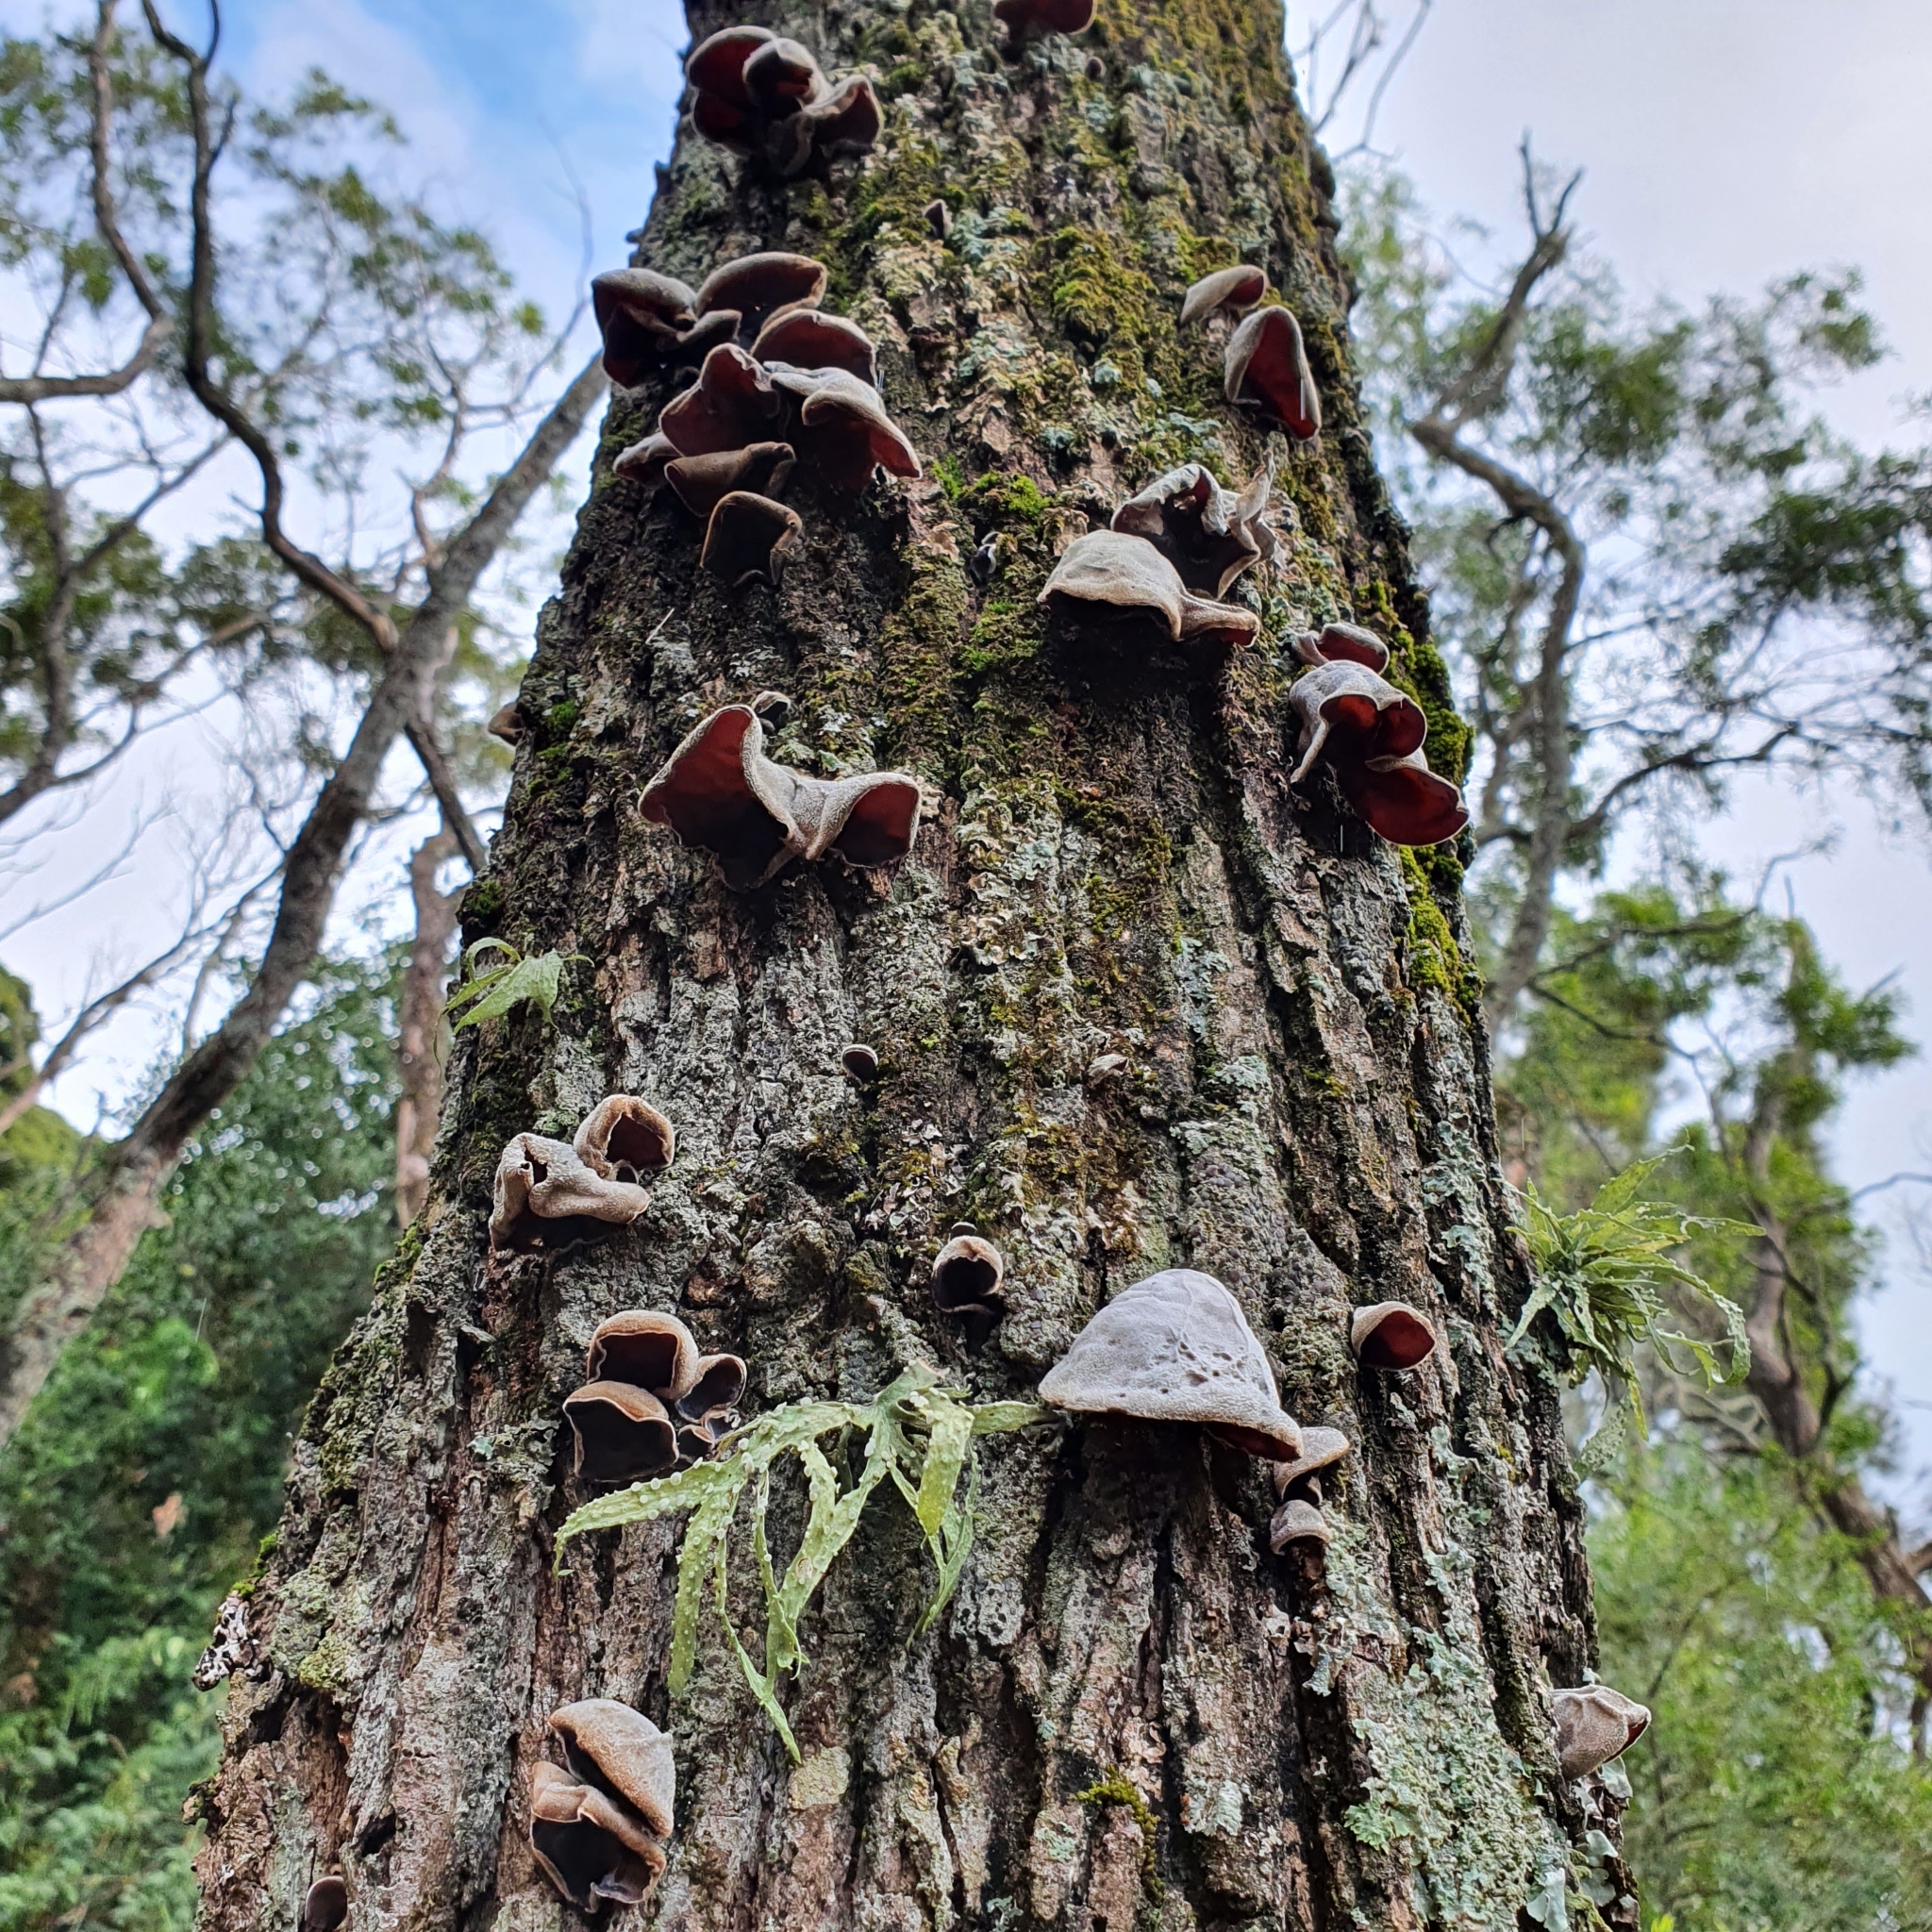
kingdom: Fungi
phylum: Basidiomycota
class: Agaricomycetes
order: Auriculariales
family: Auriculariaceae
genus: Auricularia
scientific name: Auricularia cornea
